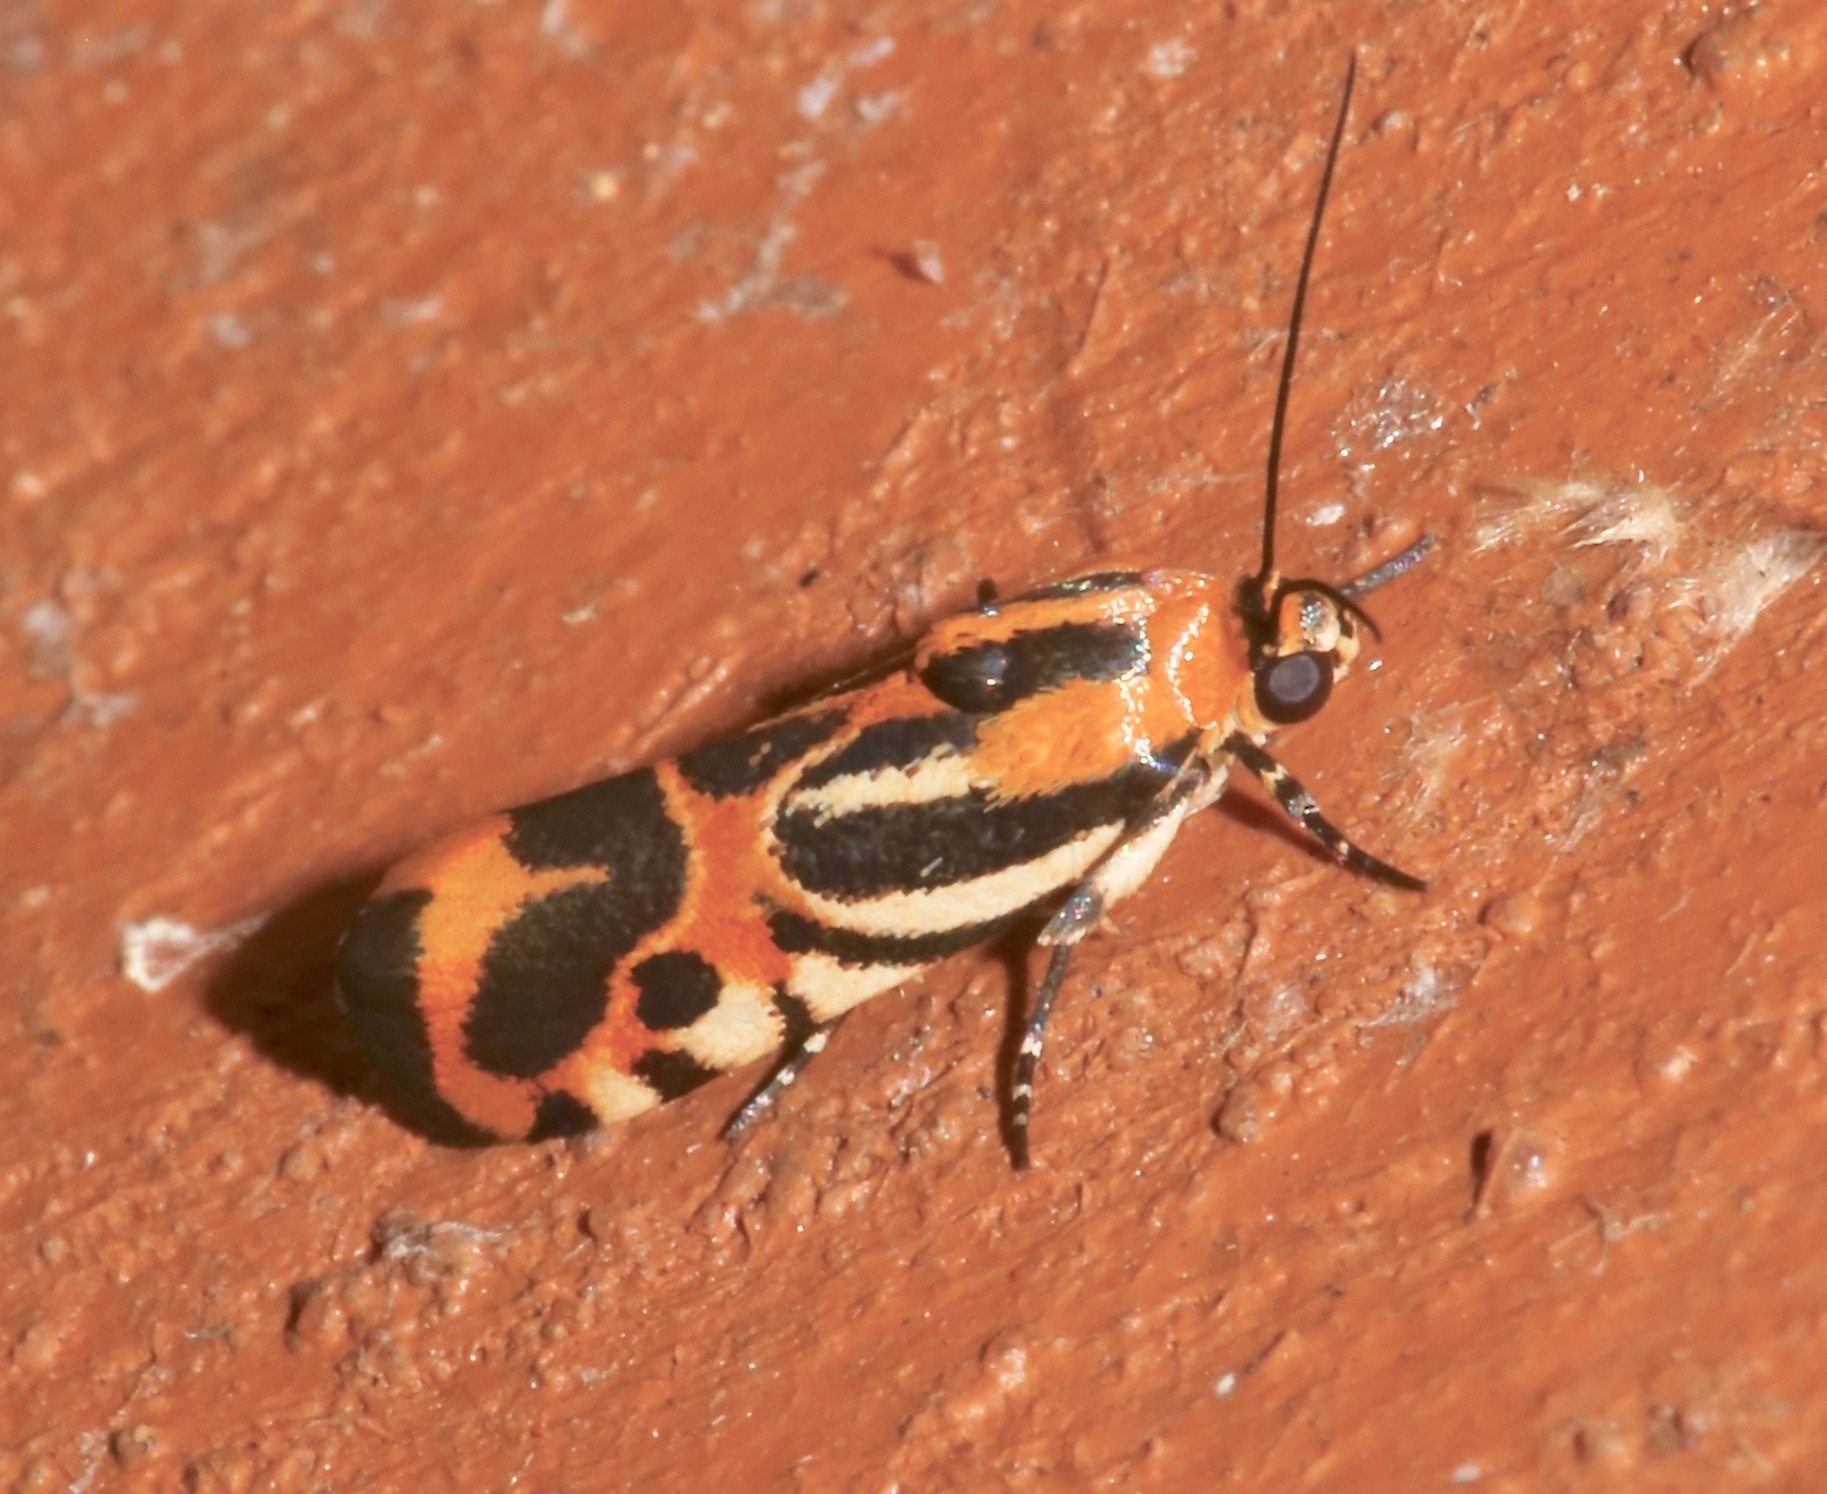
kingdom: Animalia
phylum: Arthropoda
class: Insecta
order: Lepidoptera
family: Noctuidae
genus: Acontia
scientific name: Acontia onagrus
